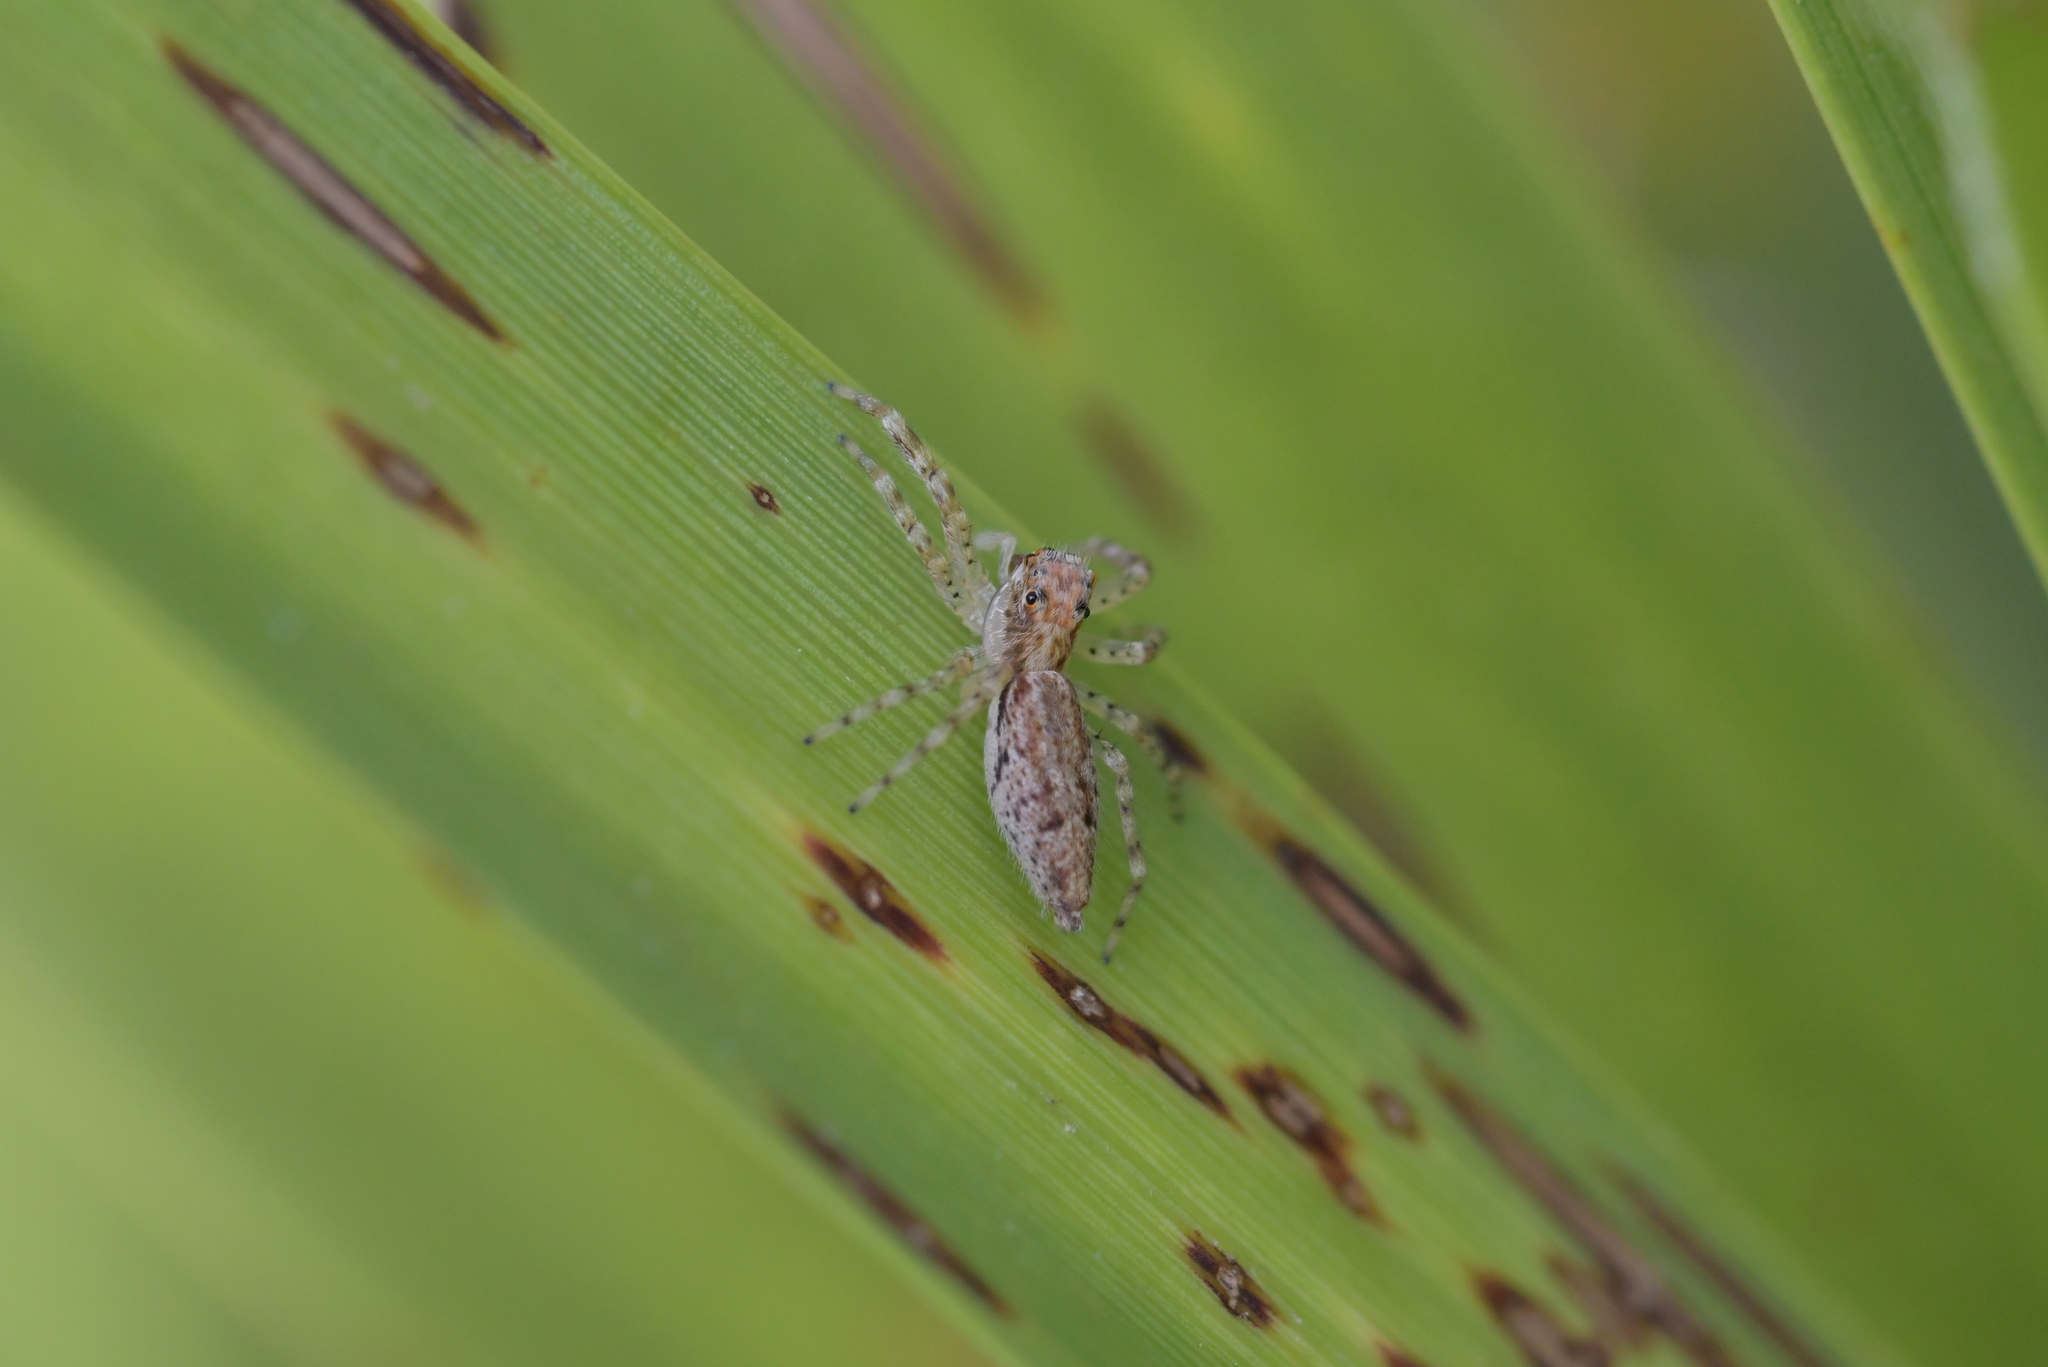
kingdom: Animalia
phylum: Arthropoda
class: Arachnida
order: Araneae
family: Salticidae
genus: Helpis
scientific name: Helpis minitabunda
